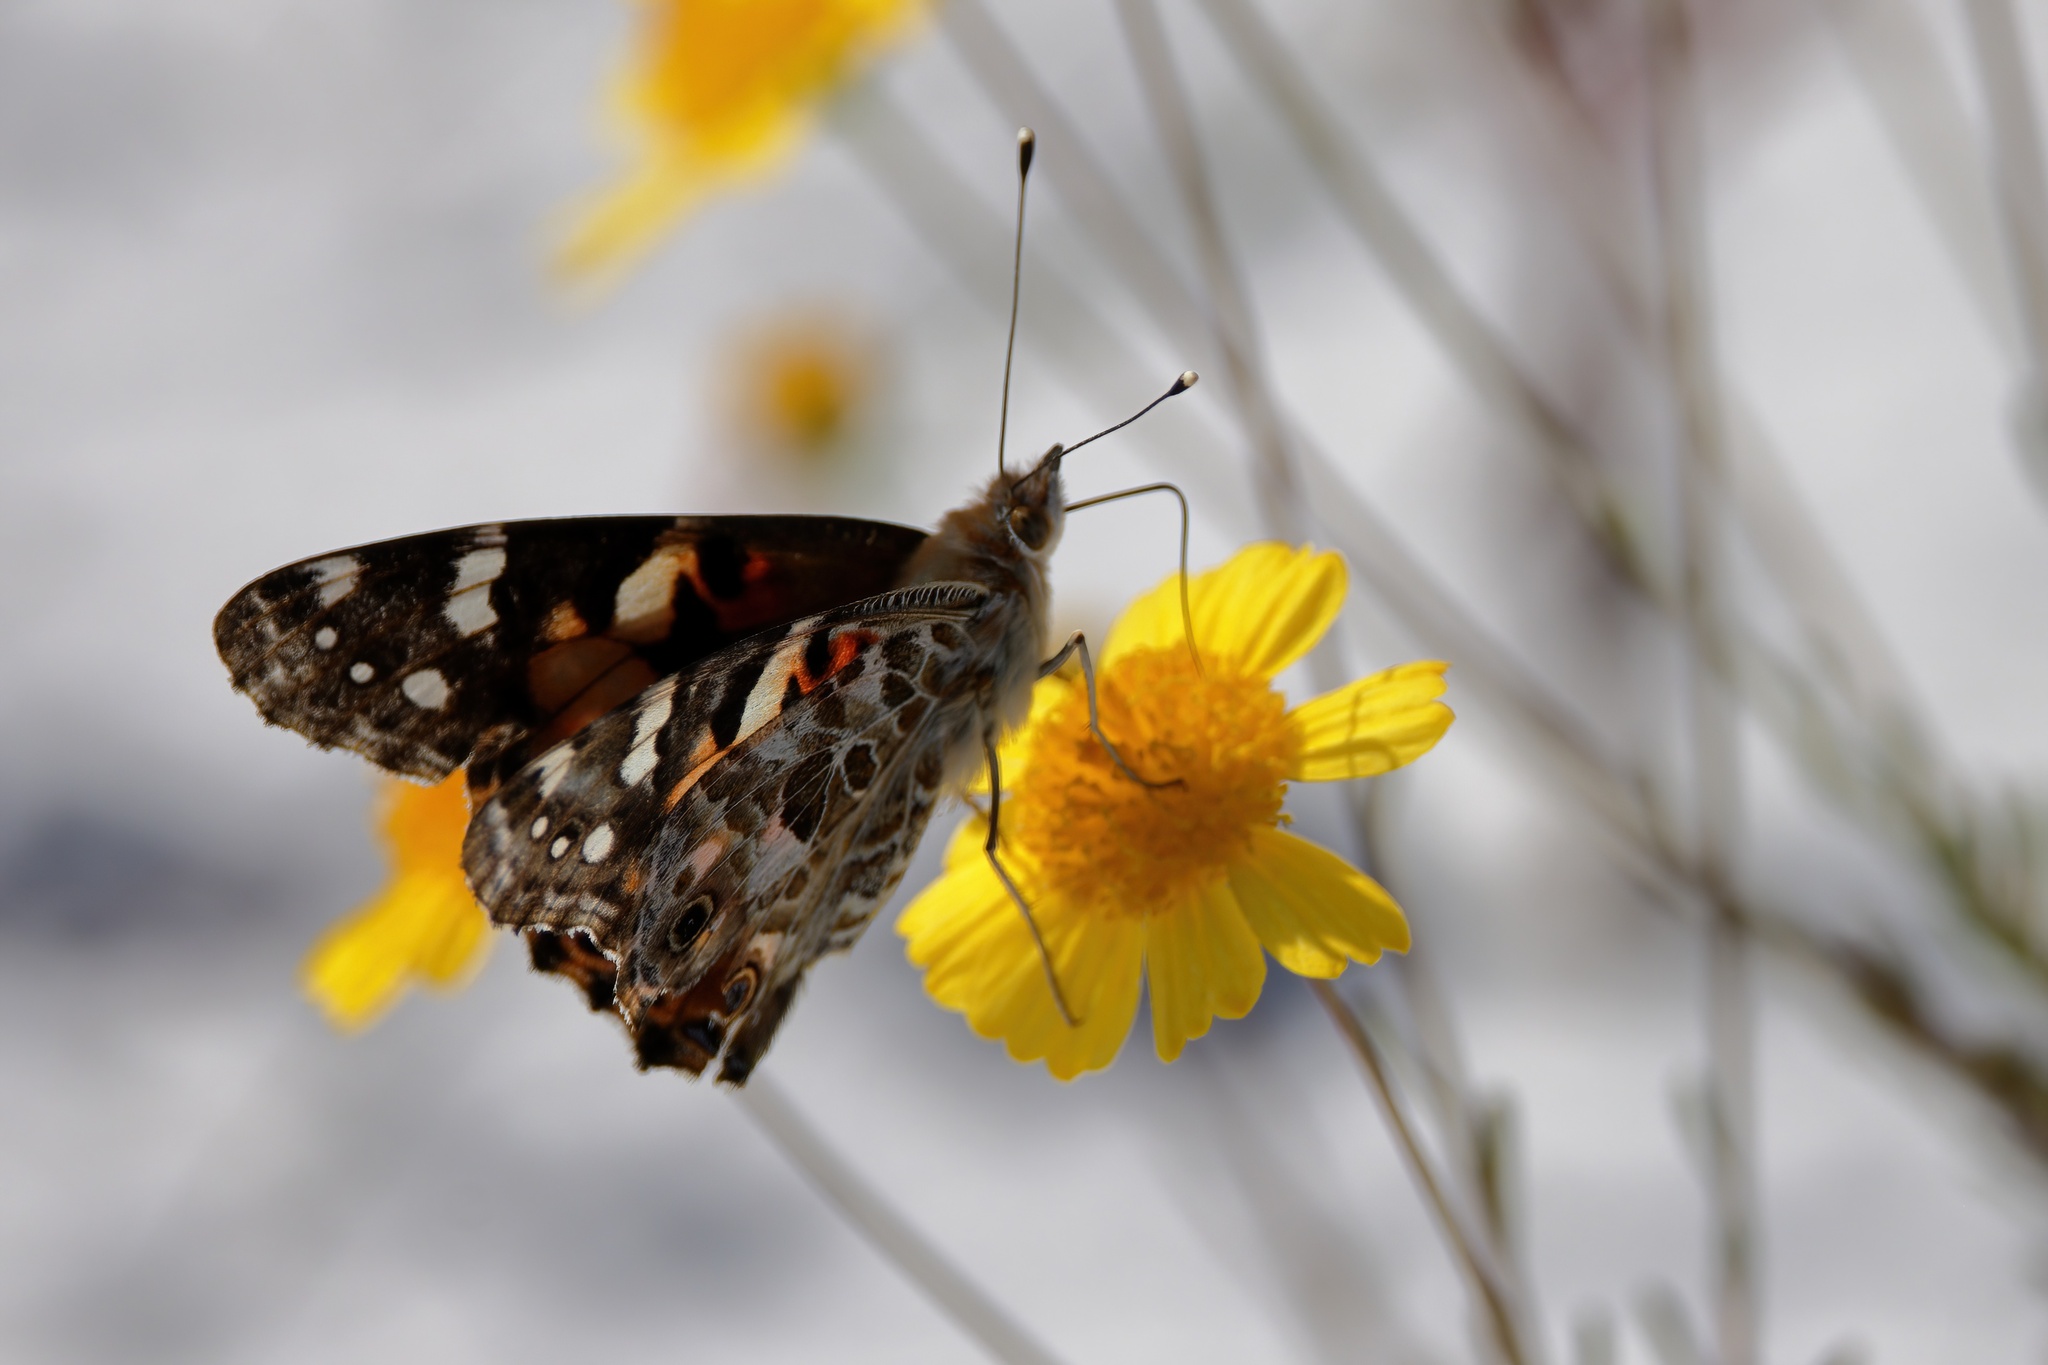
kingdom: Animalia
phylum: Arthropoda
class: Insecta
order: Lepidoptera
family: Nymphalidae
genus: Vanessa
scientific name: Vanessa cardui
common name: Painted lady
